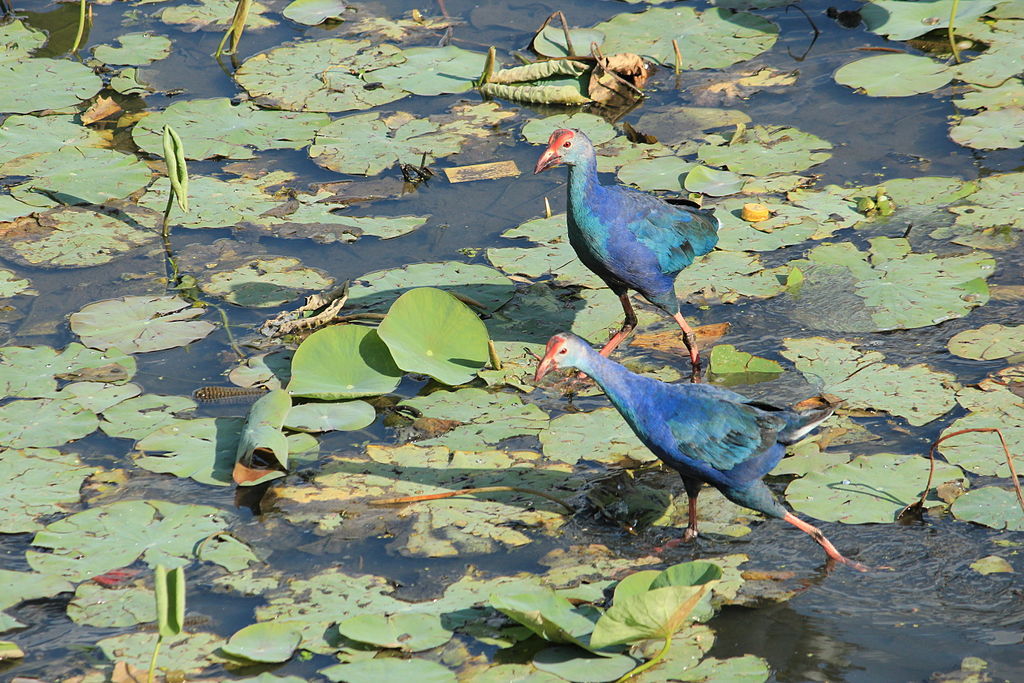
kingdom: Animalia
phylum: Chordata
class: Aves
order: Gruiformes
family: Rallidae
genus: Porphyrio
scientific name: Porphyrio porphyrio
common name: Purple swamphen
